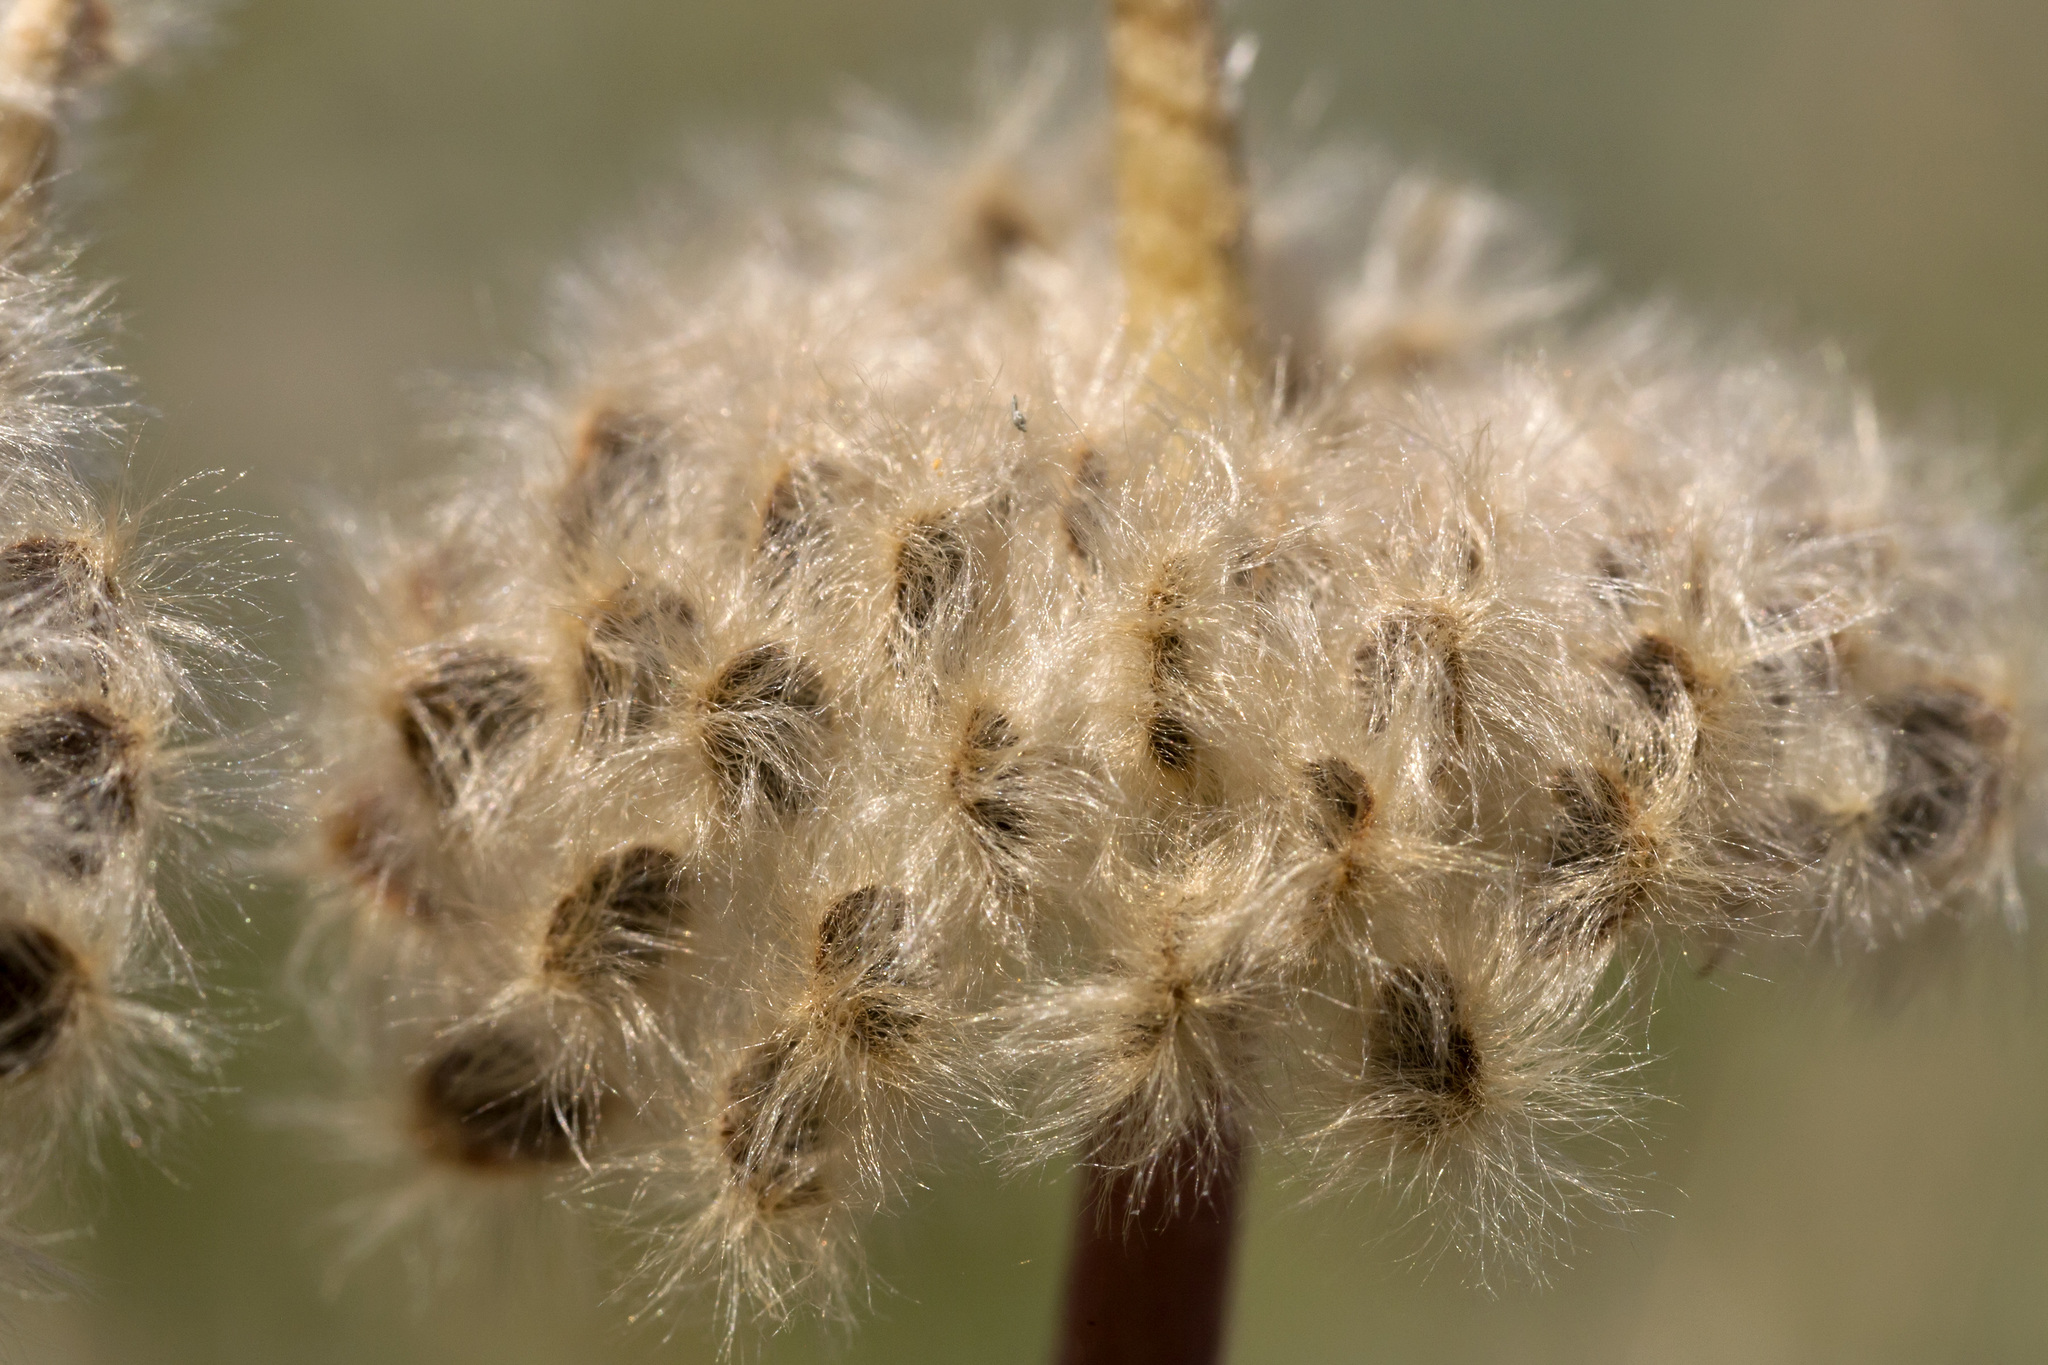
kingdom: Plantae
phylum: Tracheophyta
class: Magnoliopsida
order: Ranunculales
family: Ranunculaceae
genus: Anemone
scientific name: Anemone tuberosa
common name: Desert anemone
